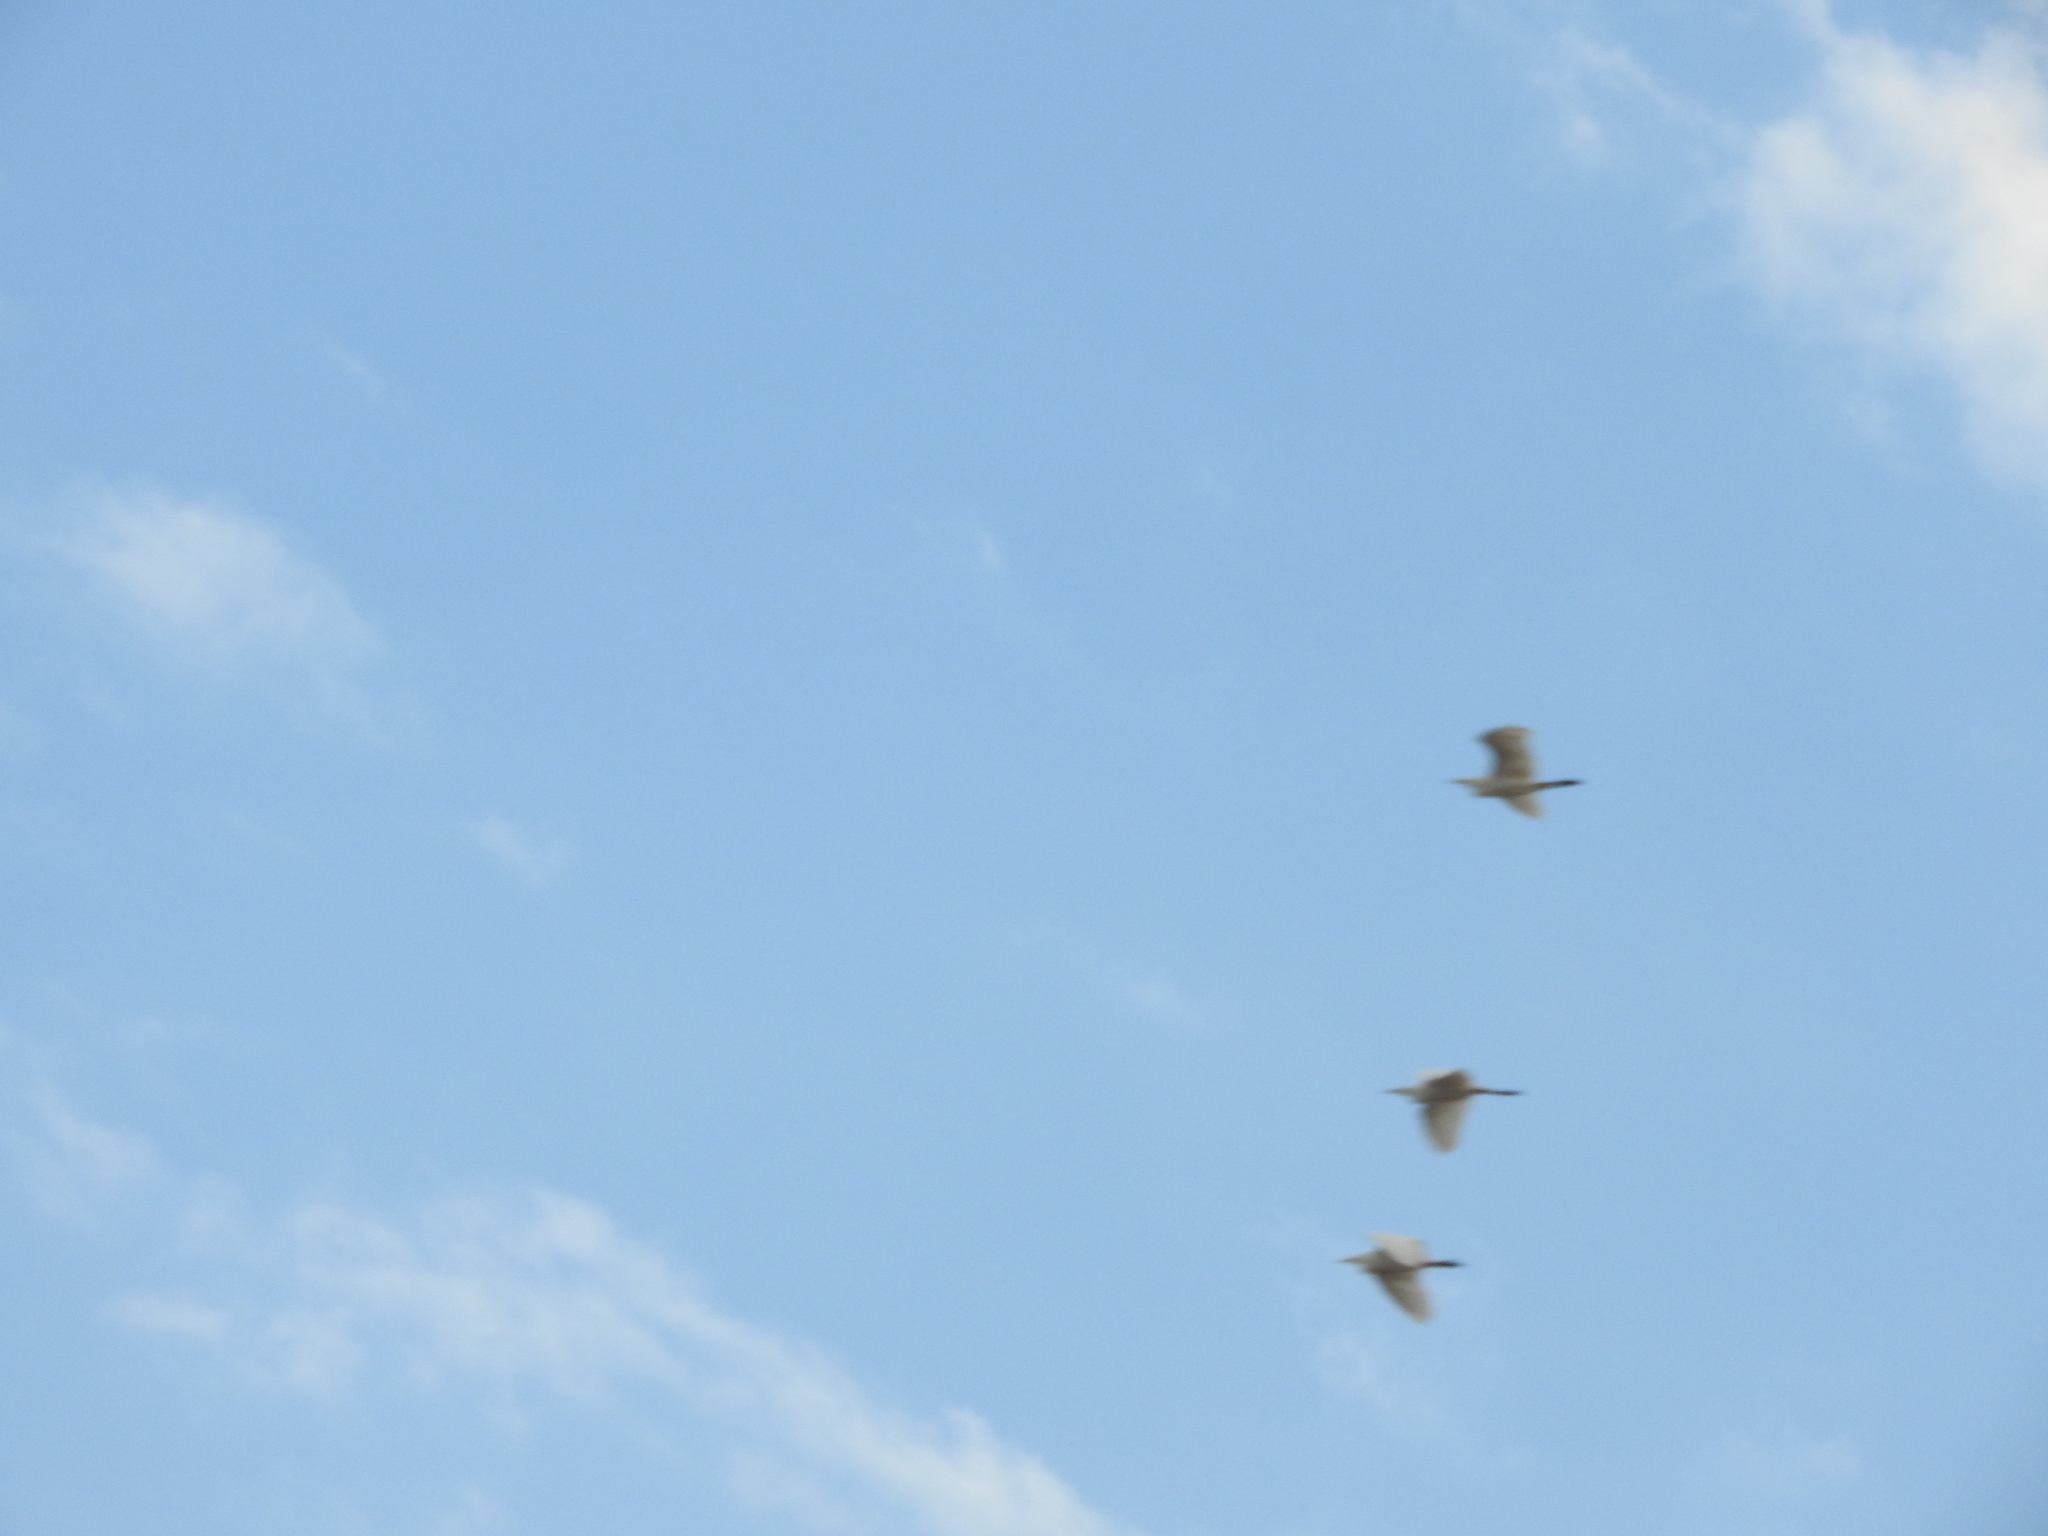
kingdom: Animalia
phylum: Chordata
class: Aves
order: Pelecaniformes
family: Ardeidae
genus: Bubulcus
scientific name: Bubulcus ibis
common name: Cattle egret
